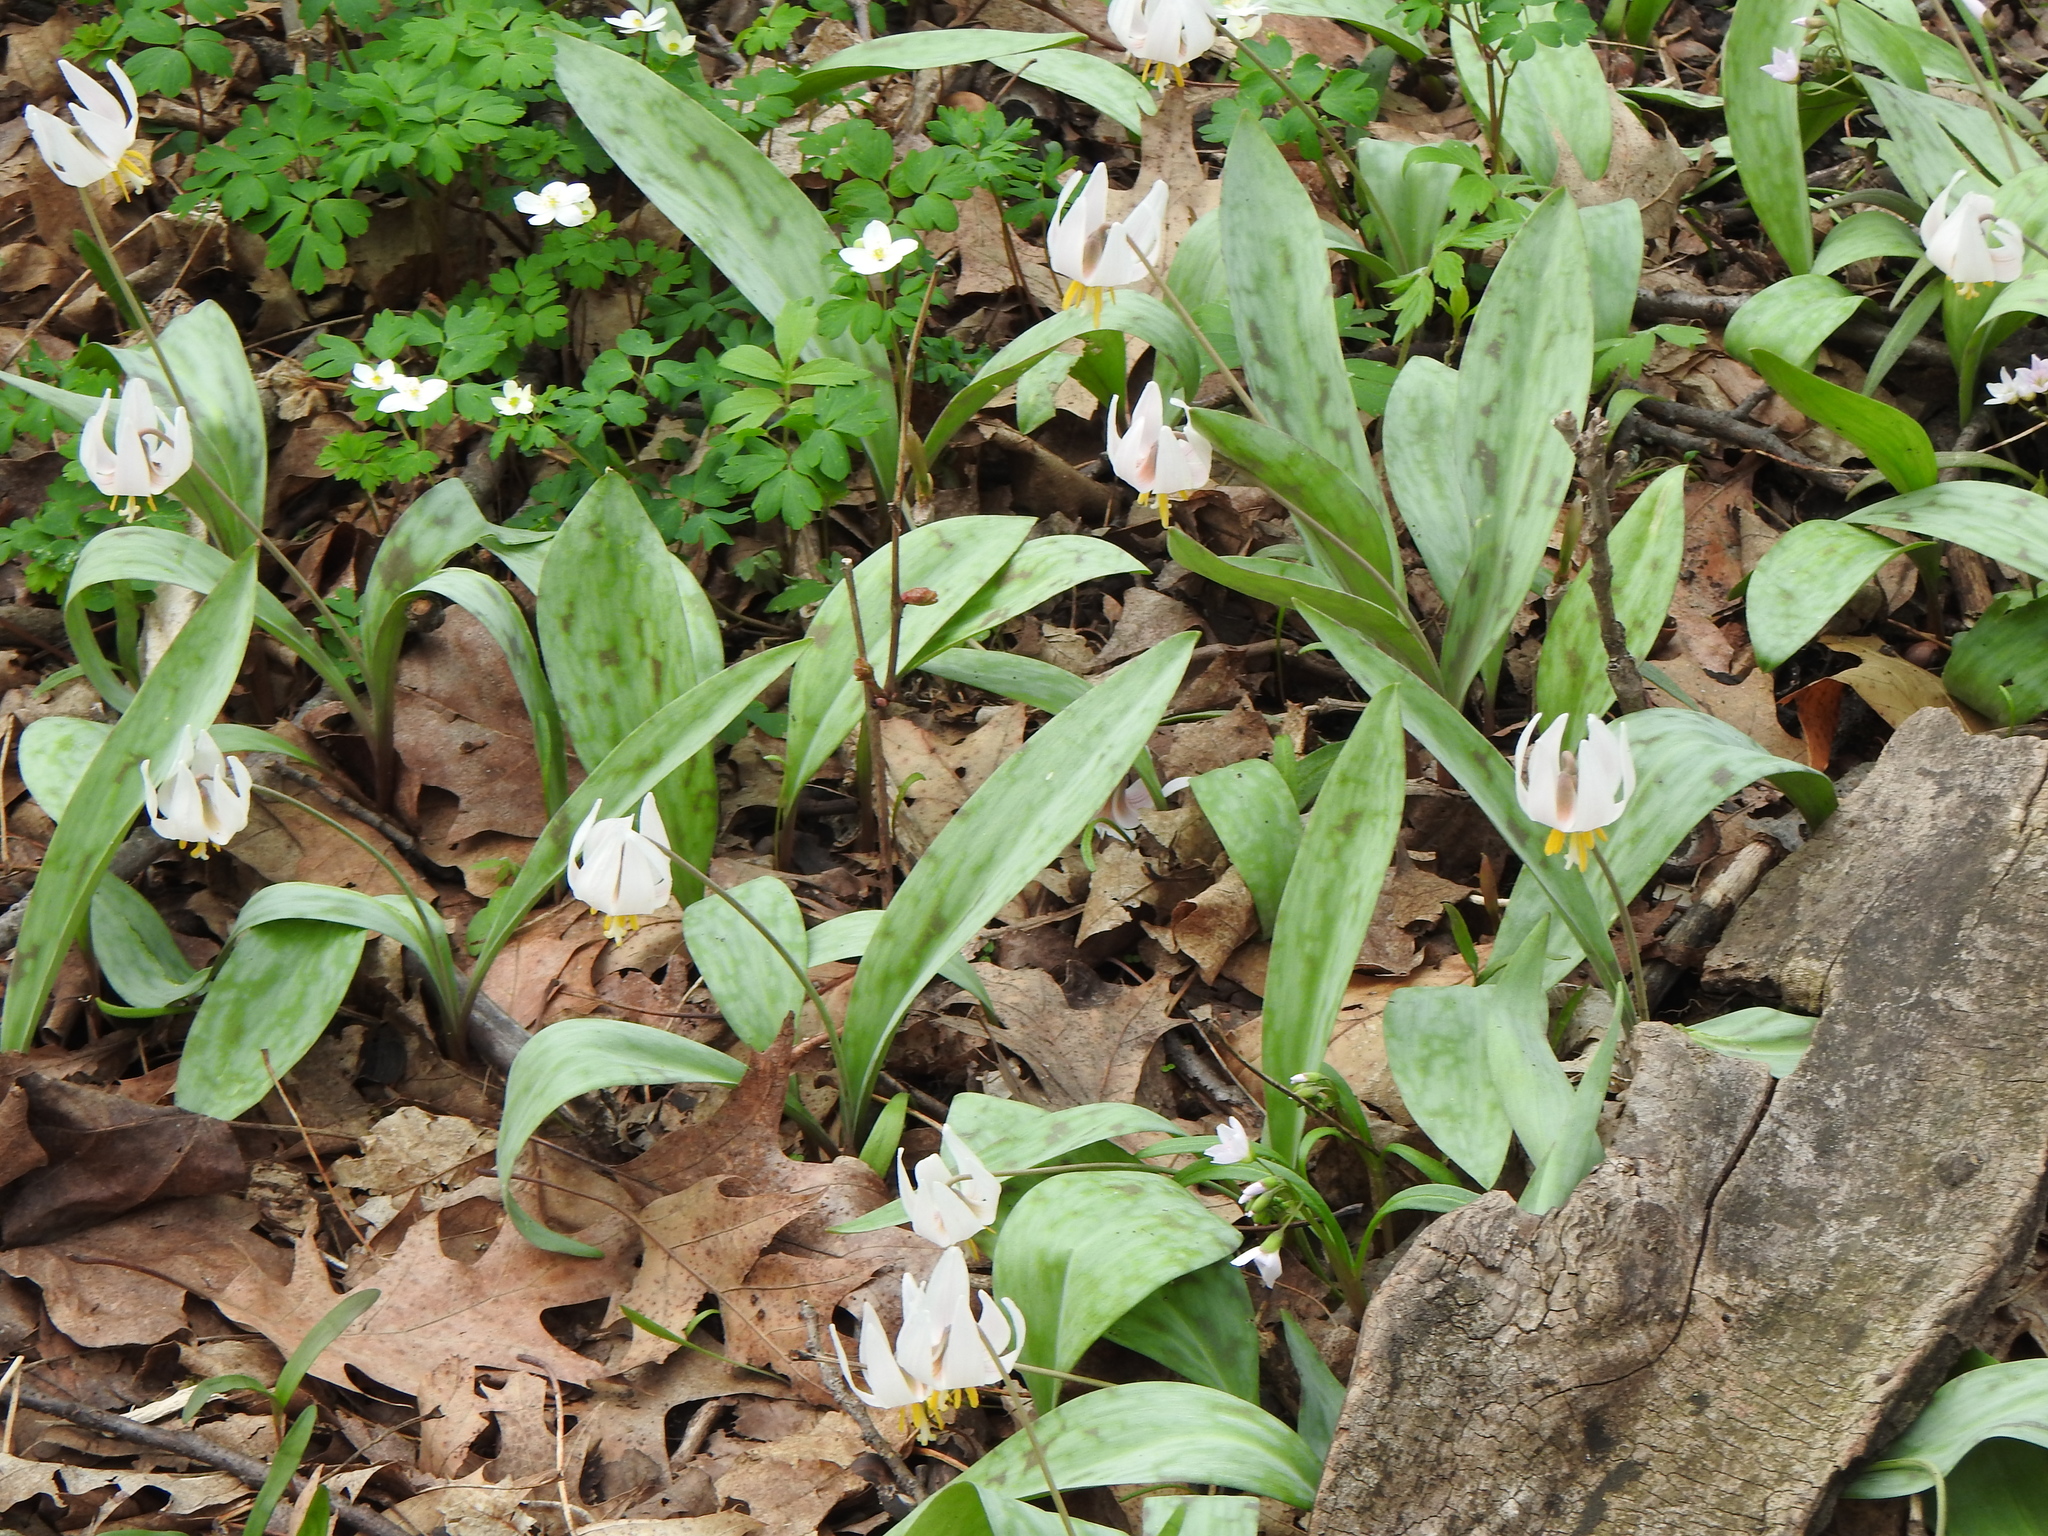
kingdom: Plantae
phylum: Tracheophyta
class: Liliopsida
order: Liliales
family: Liliaceae
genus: Erythronium
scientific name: Erythronium albidum
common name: White trout-lily
